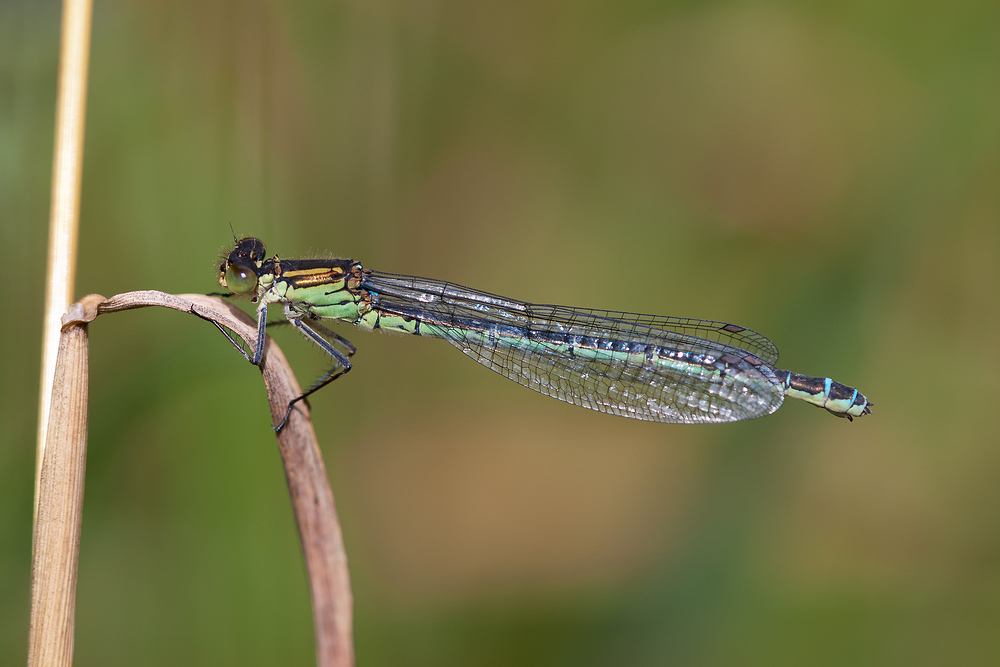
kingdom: Animalia
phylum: Arthropoda
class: Insecta
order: Odonata
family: Coenagrionidae
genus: Erythromma
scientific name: Erythromma najas
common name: Red-eyed damselfly
